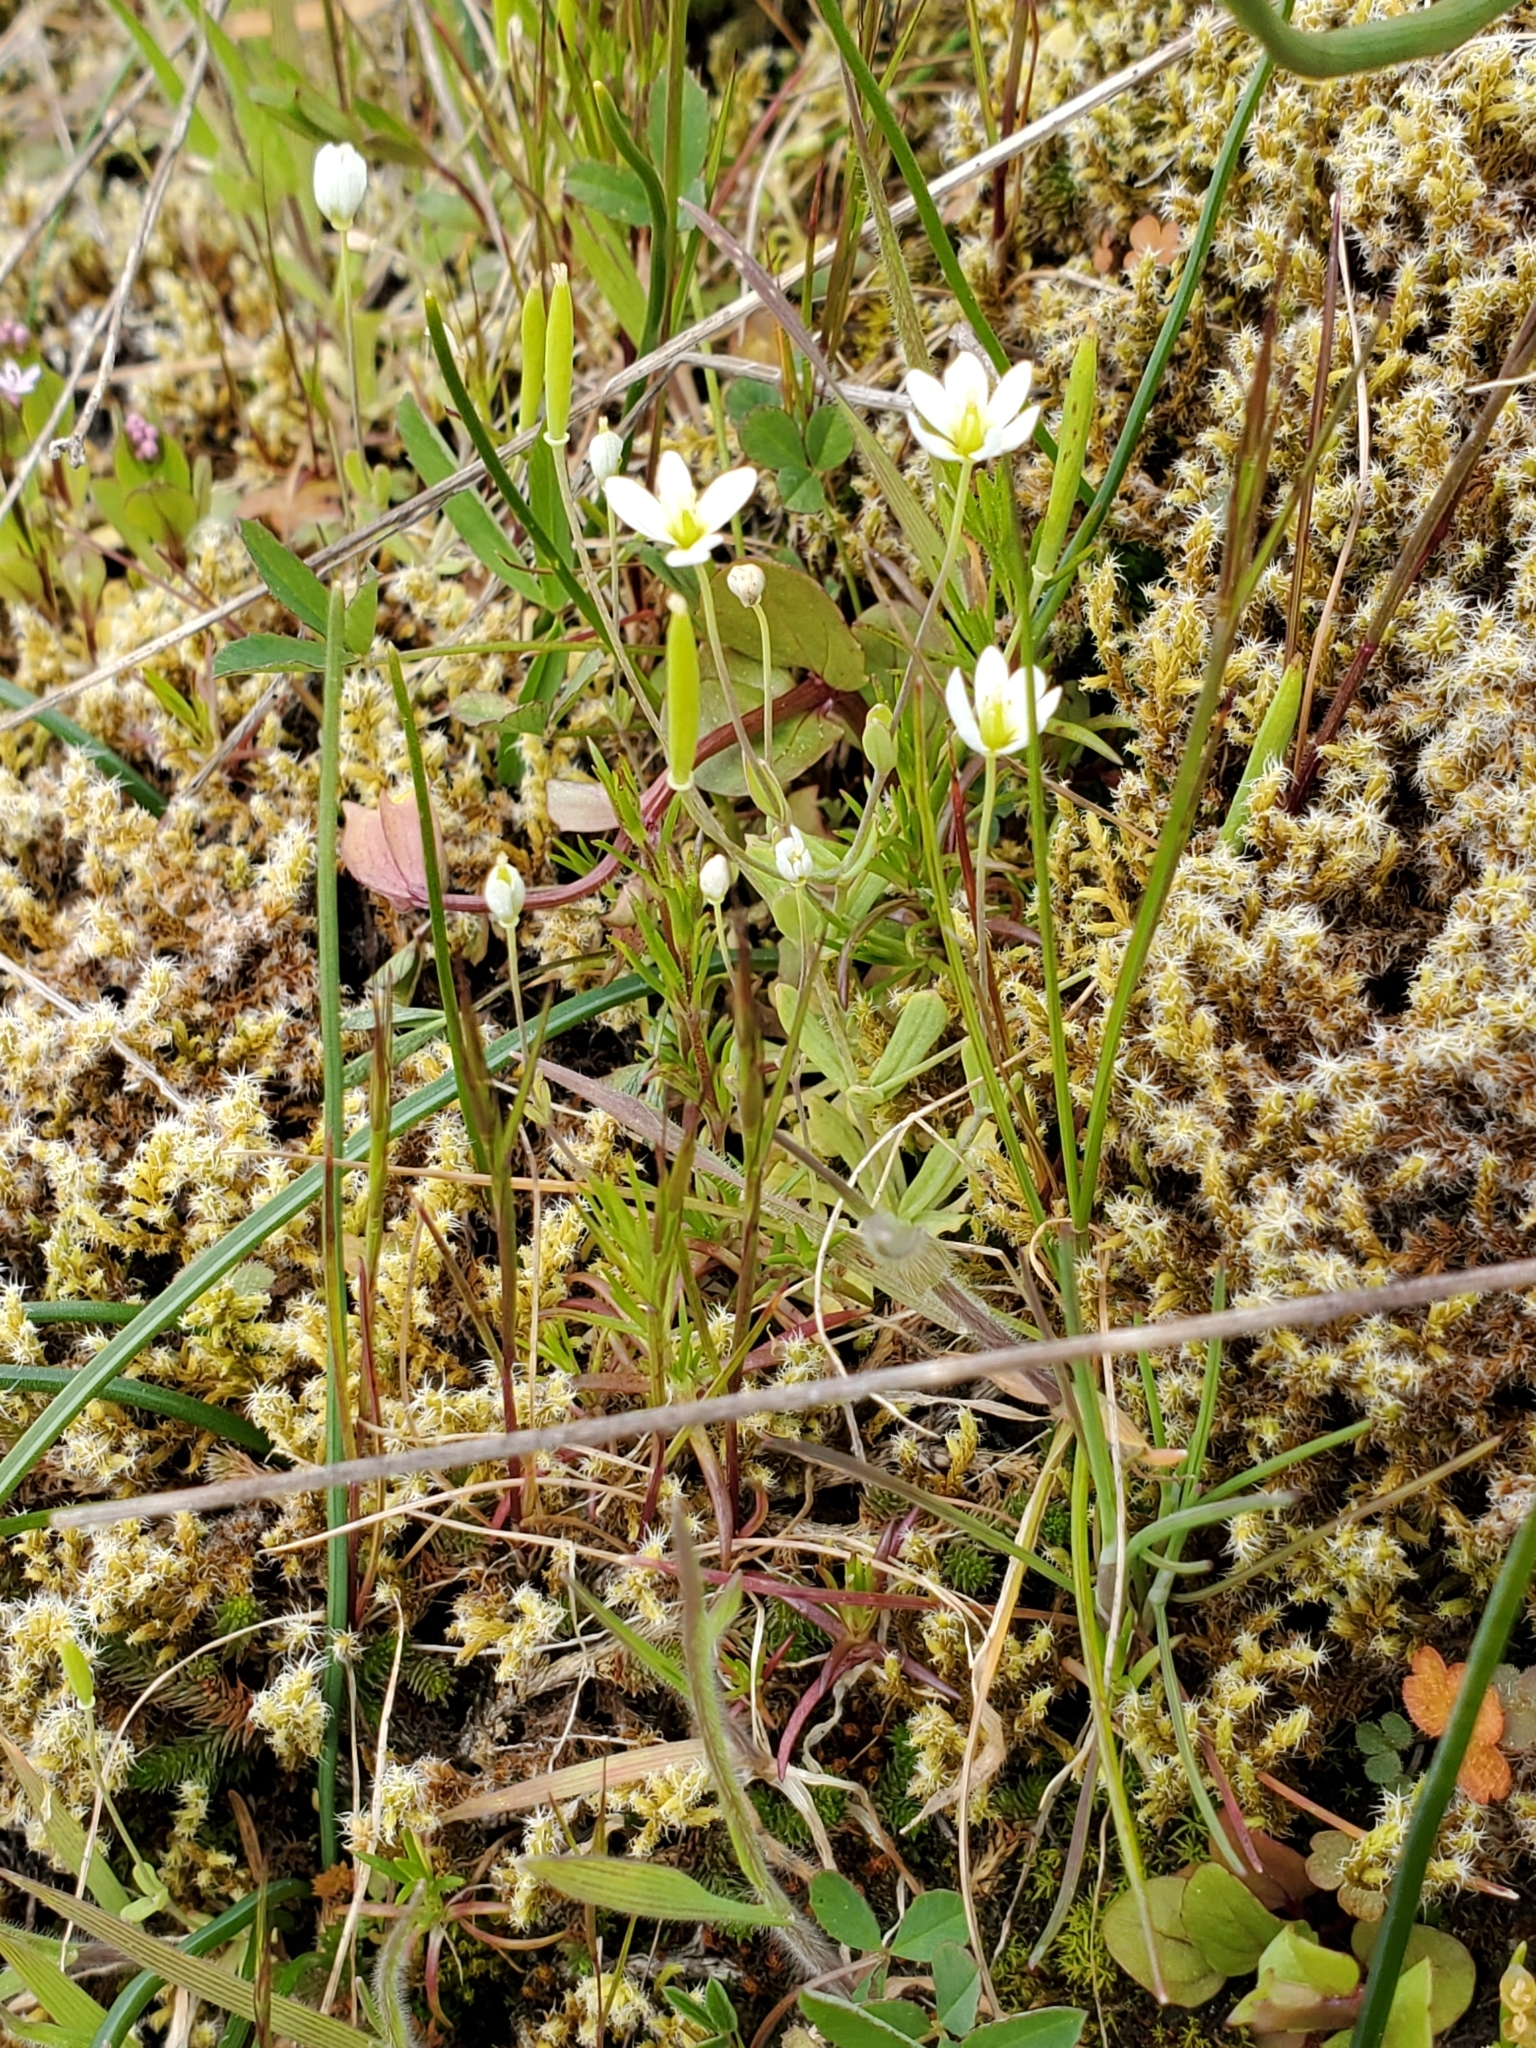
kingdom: Plantae
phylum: Tracheophyta
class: Magnoliopsida
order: Ranunculales
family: Papaveraceae
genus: Meconella
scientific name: Meconella oregana
